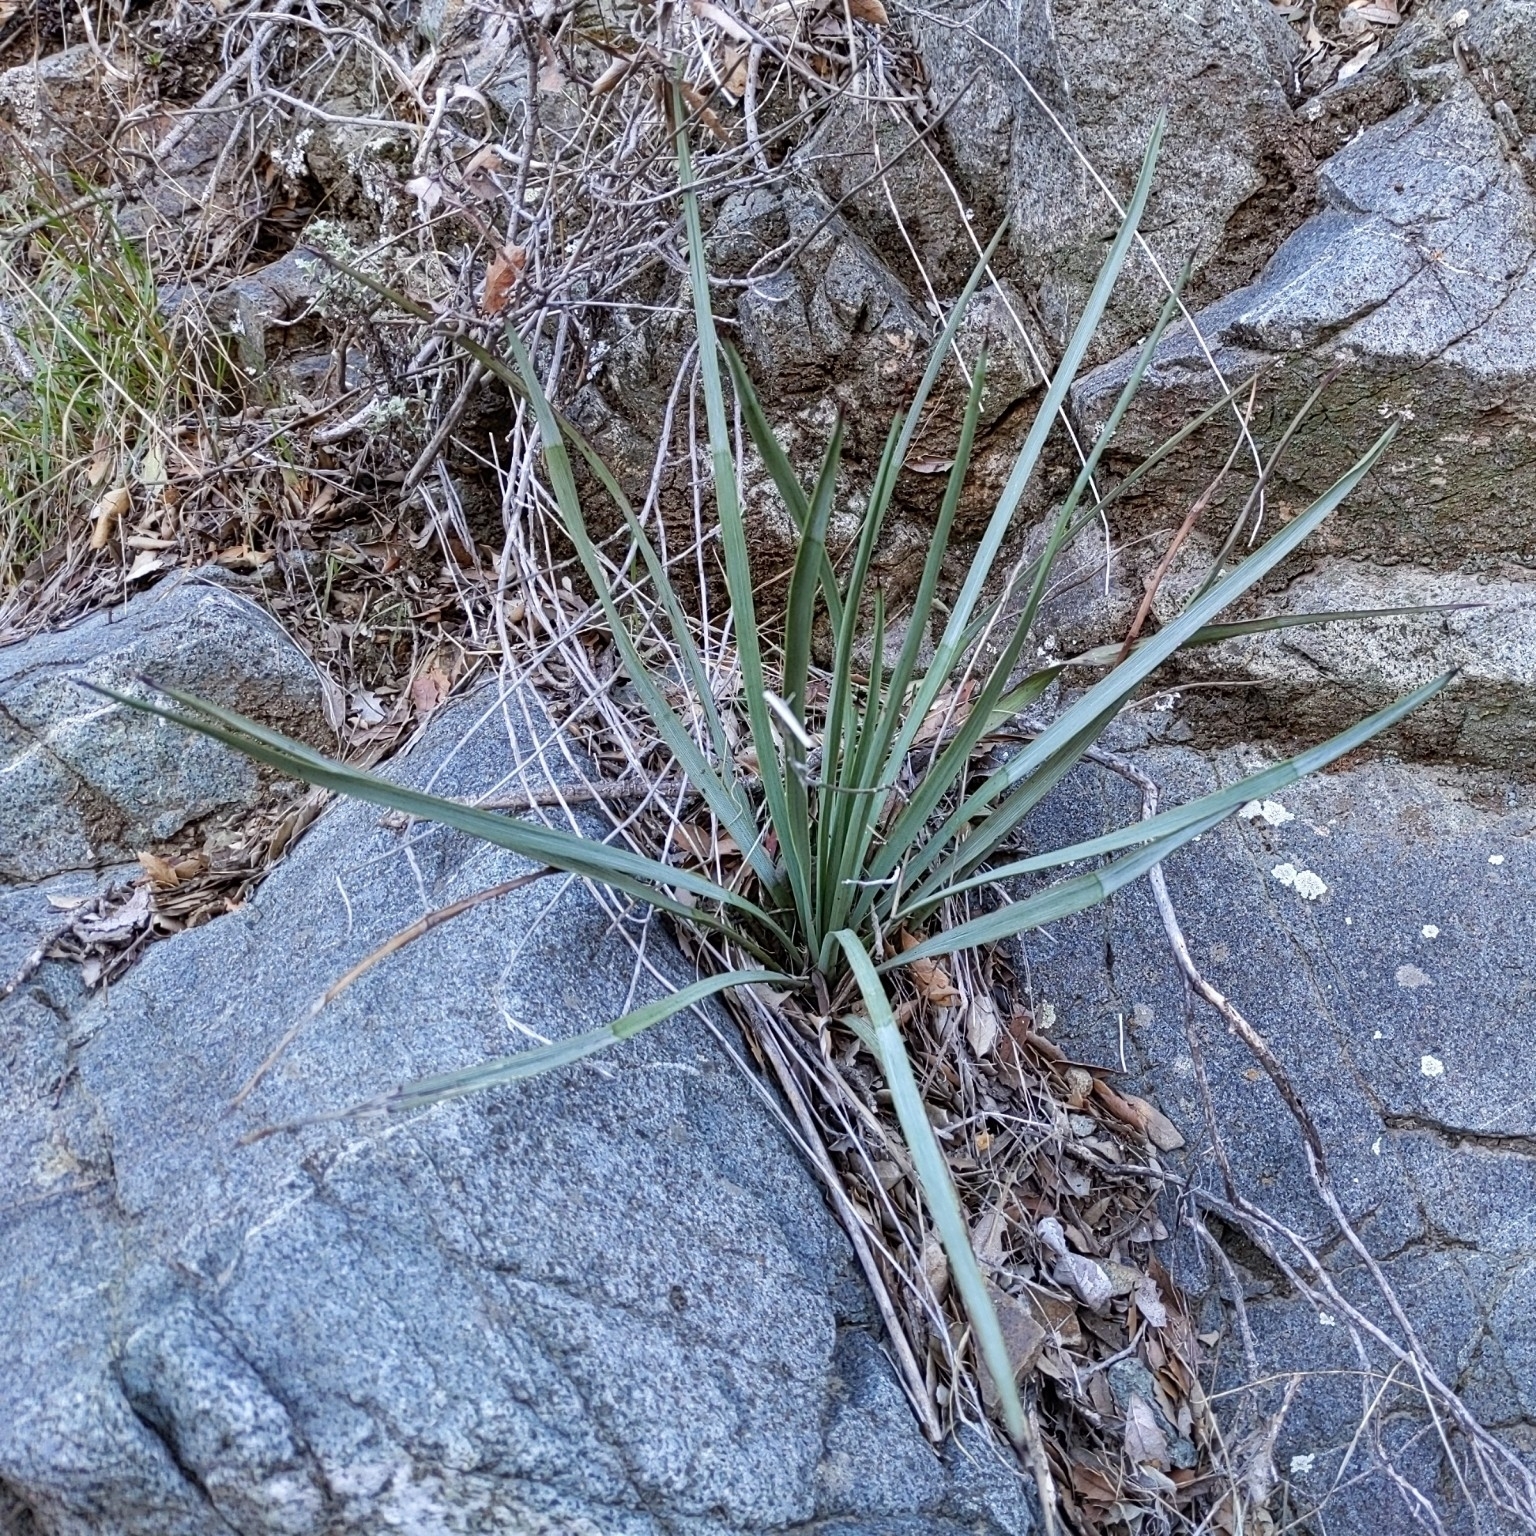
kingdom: Plantae
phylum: Tracheophyta
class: Liliopsida
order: Asparagales
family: Asparagaceae
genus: Hesperoyucca
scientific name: Hesperoyucca whipplei
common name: Our lord's-candle
